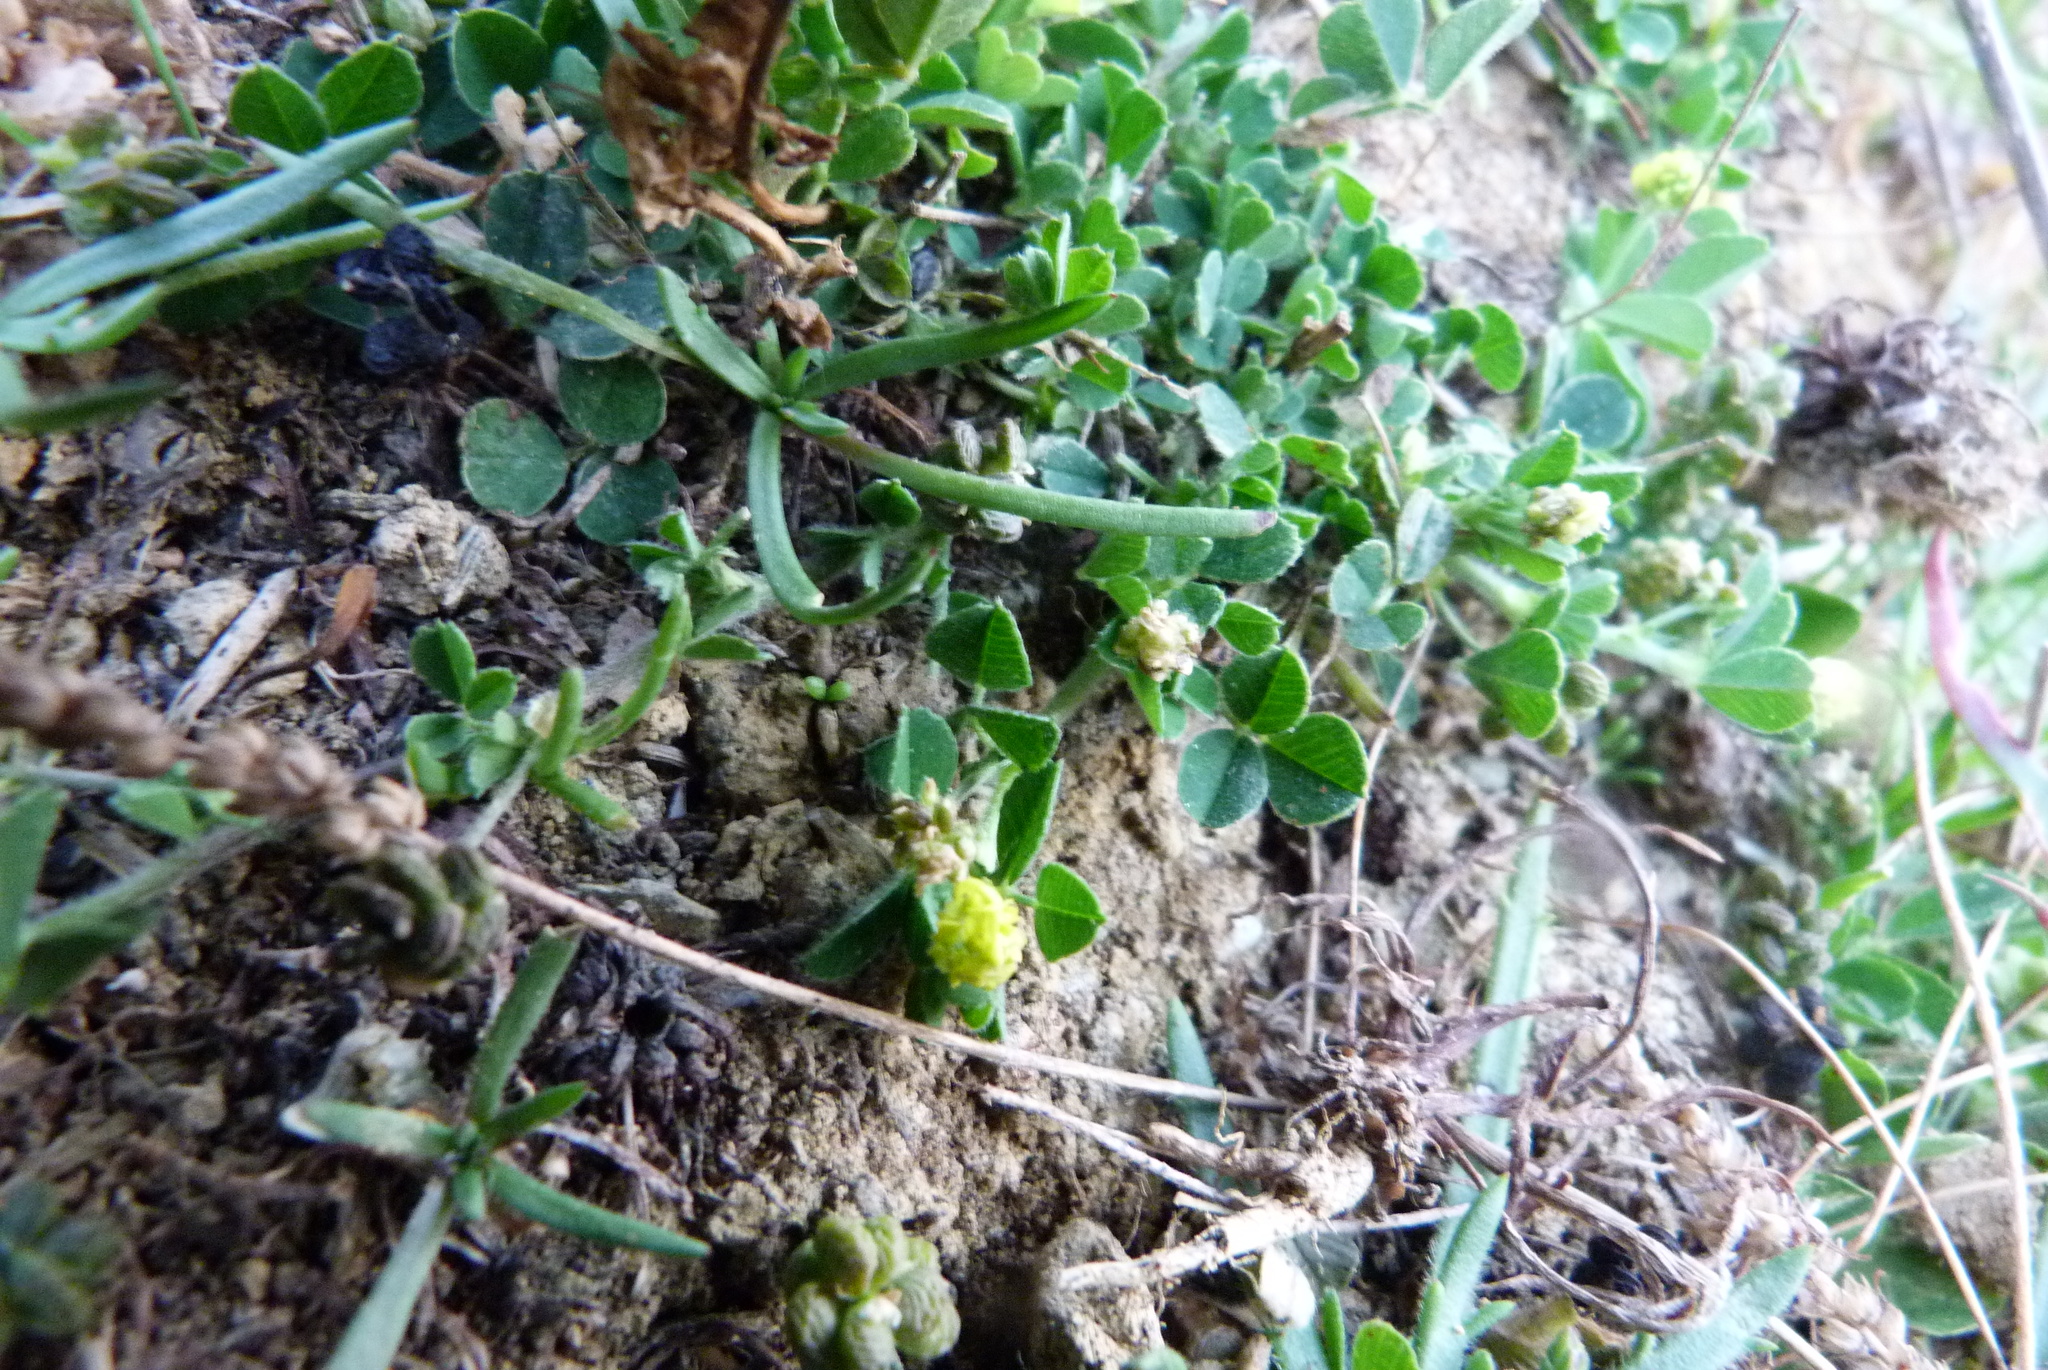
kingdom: Plantae
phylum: Tracheophyta
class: Magnoliopsida
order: Fabales
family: Fabaceae
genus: Medicago
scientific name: Medicago lupulina
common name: Black medick
